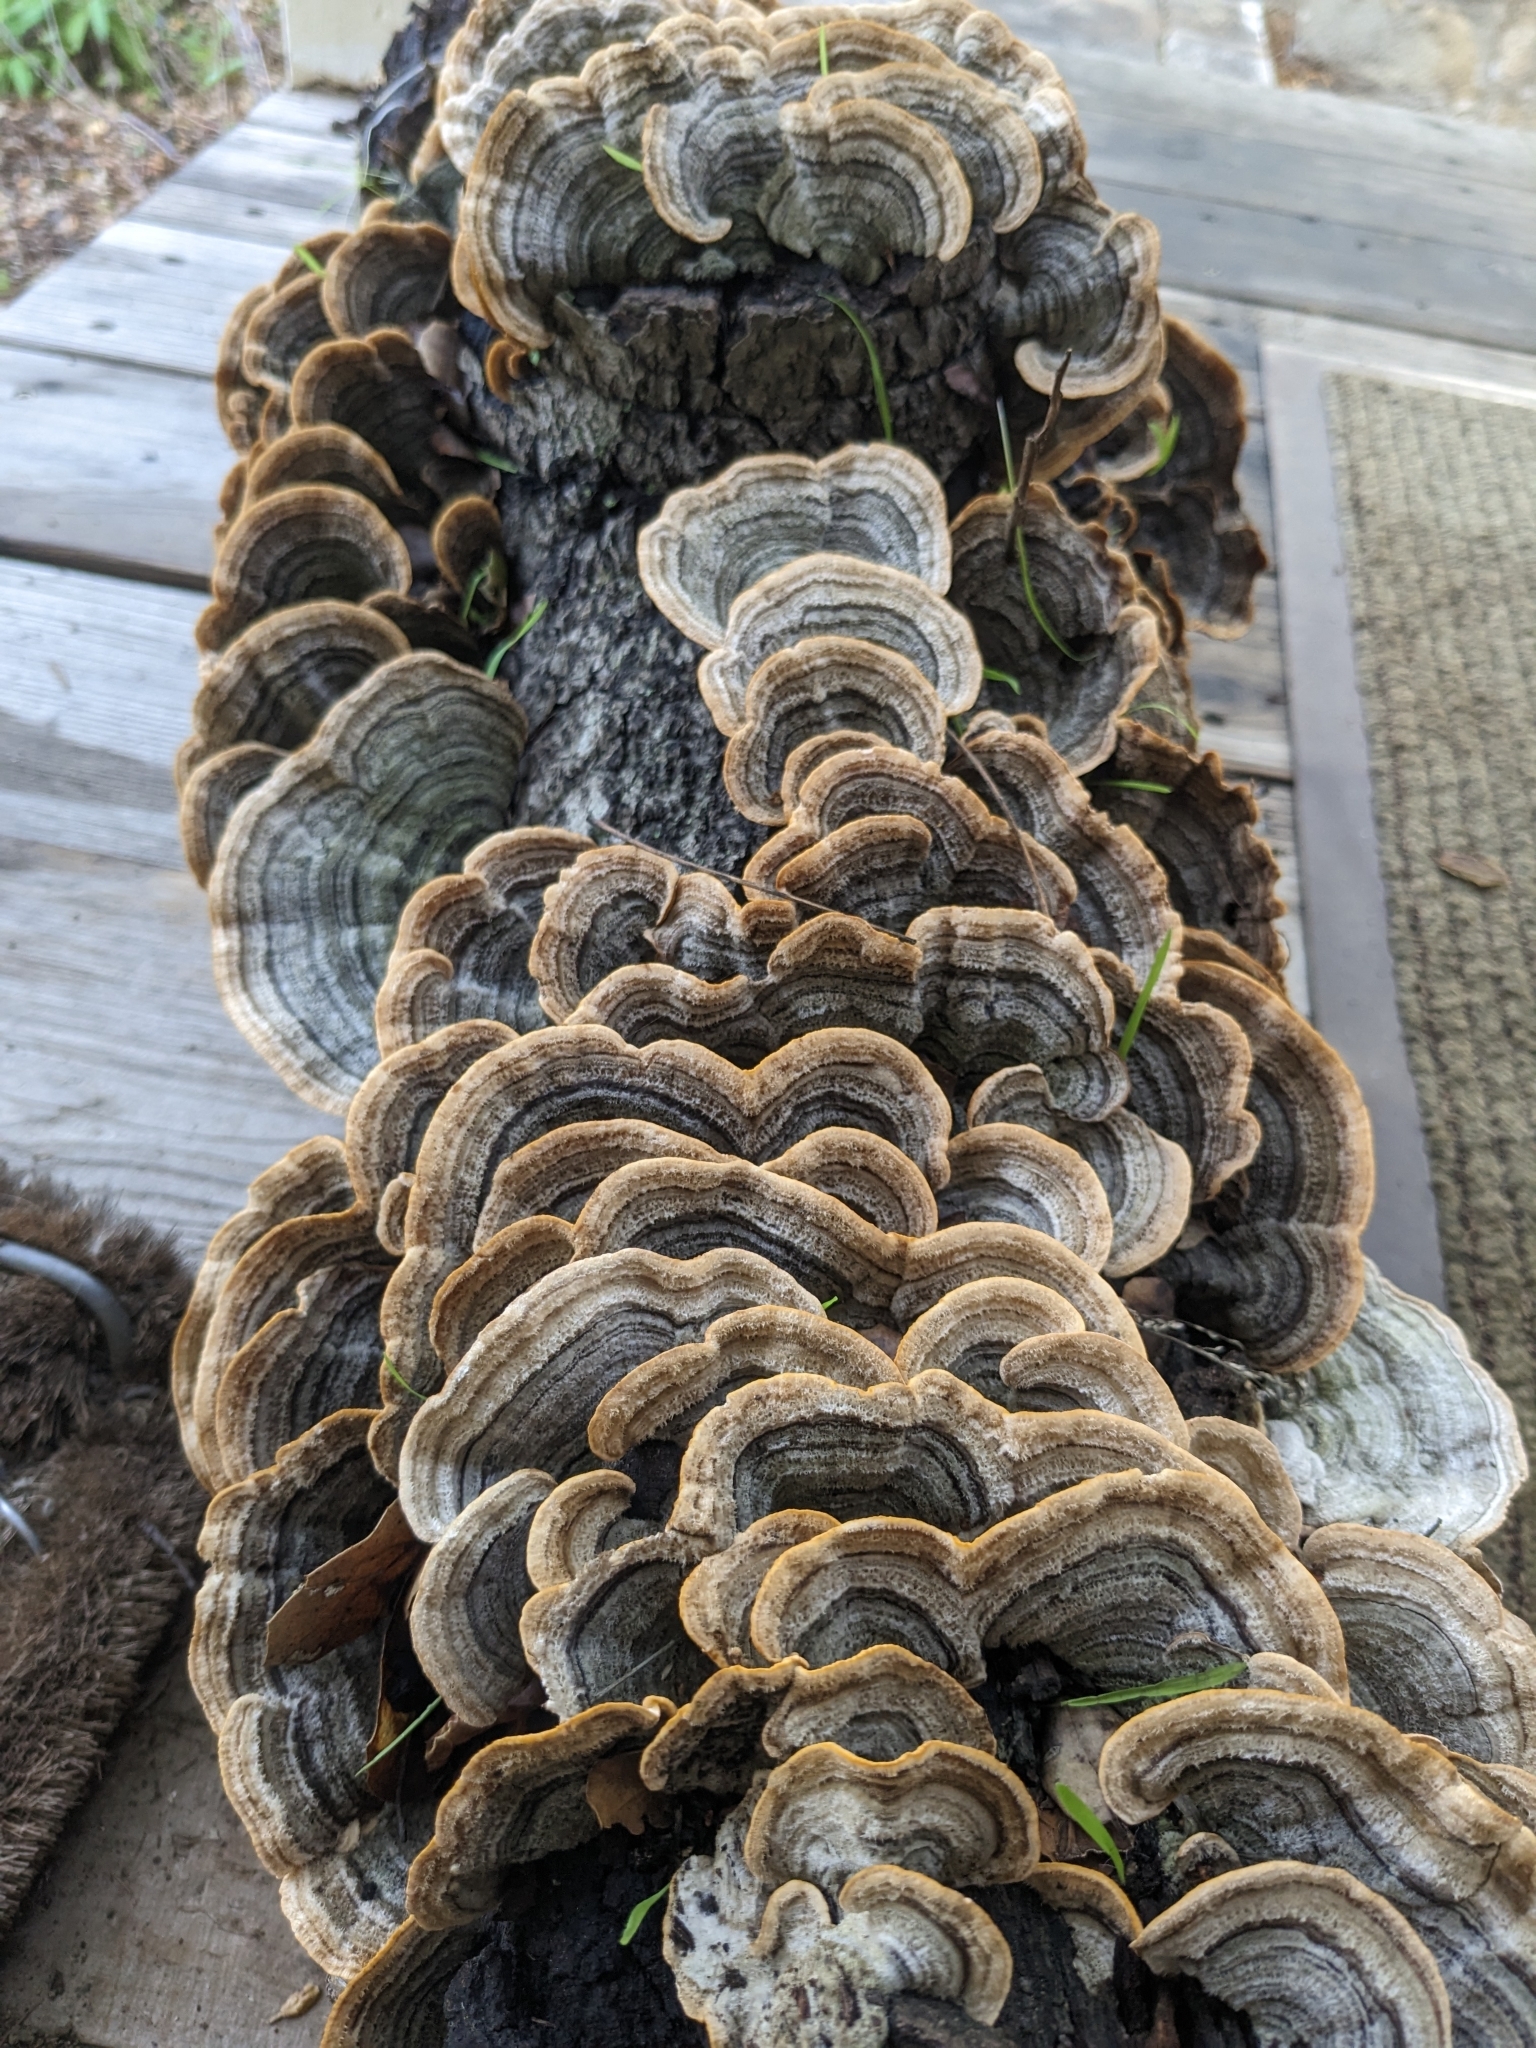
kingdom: Fungi
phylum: Basidiomycota
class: Agaricomycetes
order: Polyporales
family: Polyporaceae
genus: Trametes
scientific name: Trametes versicolor
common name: Turkeytail
